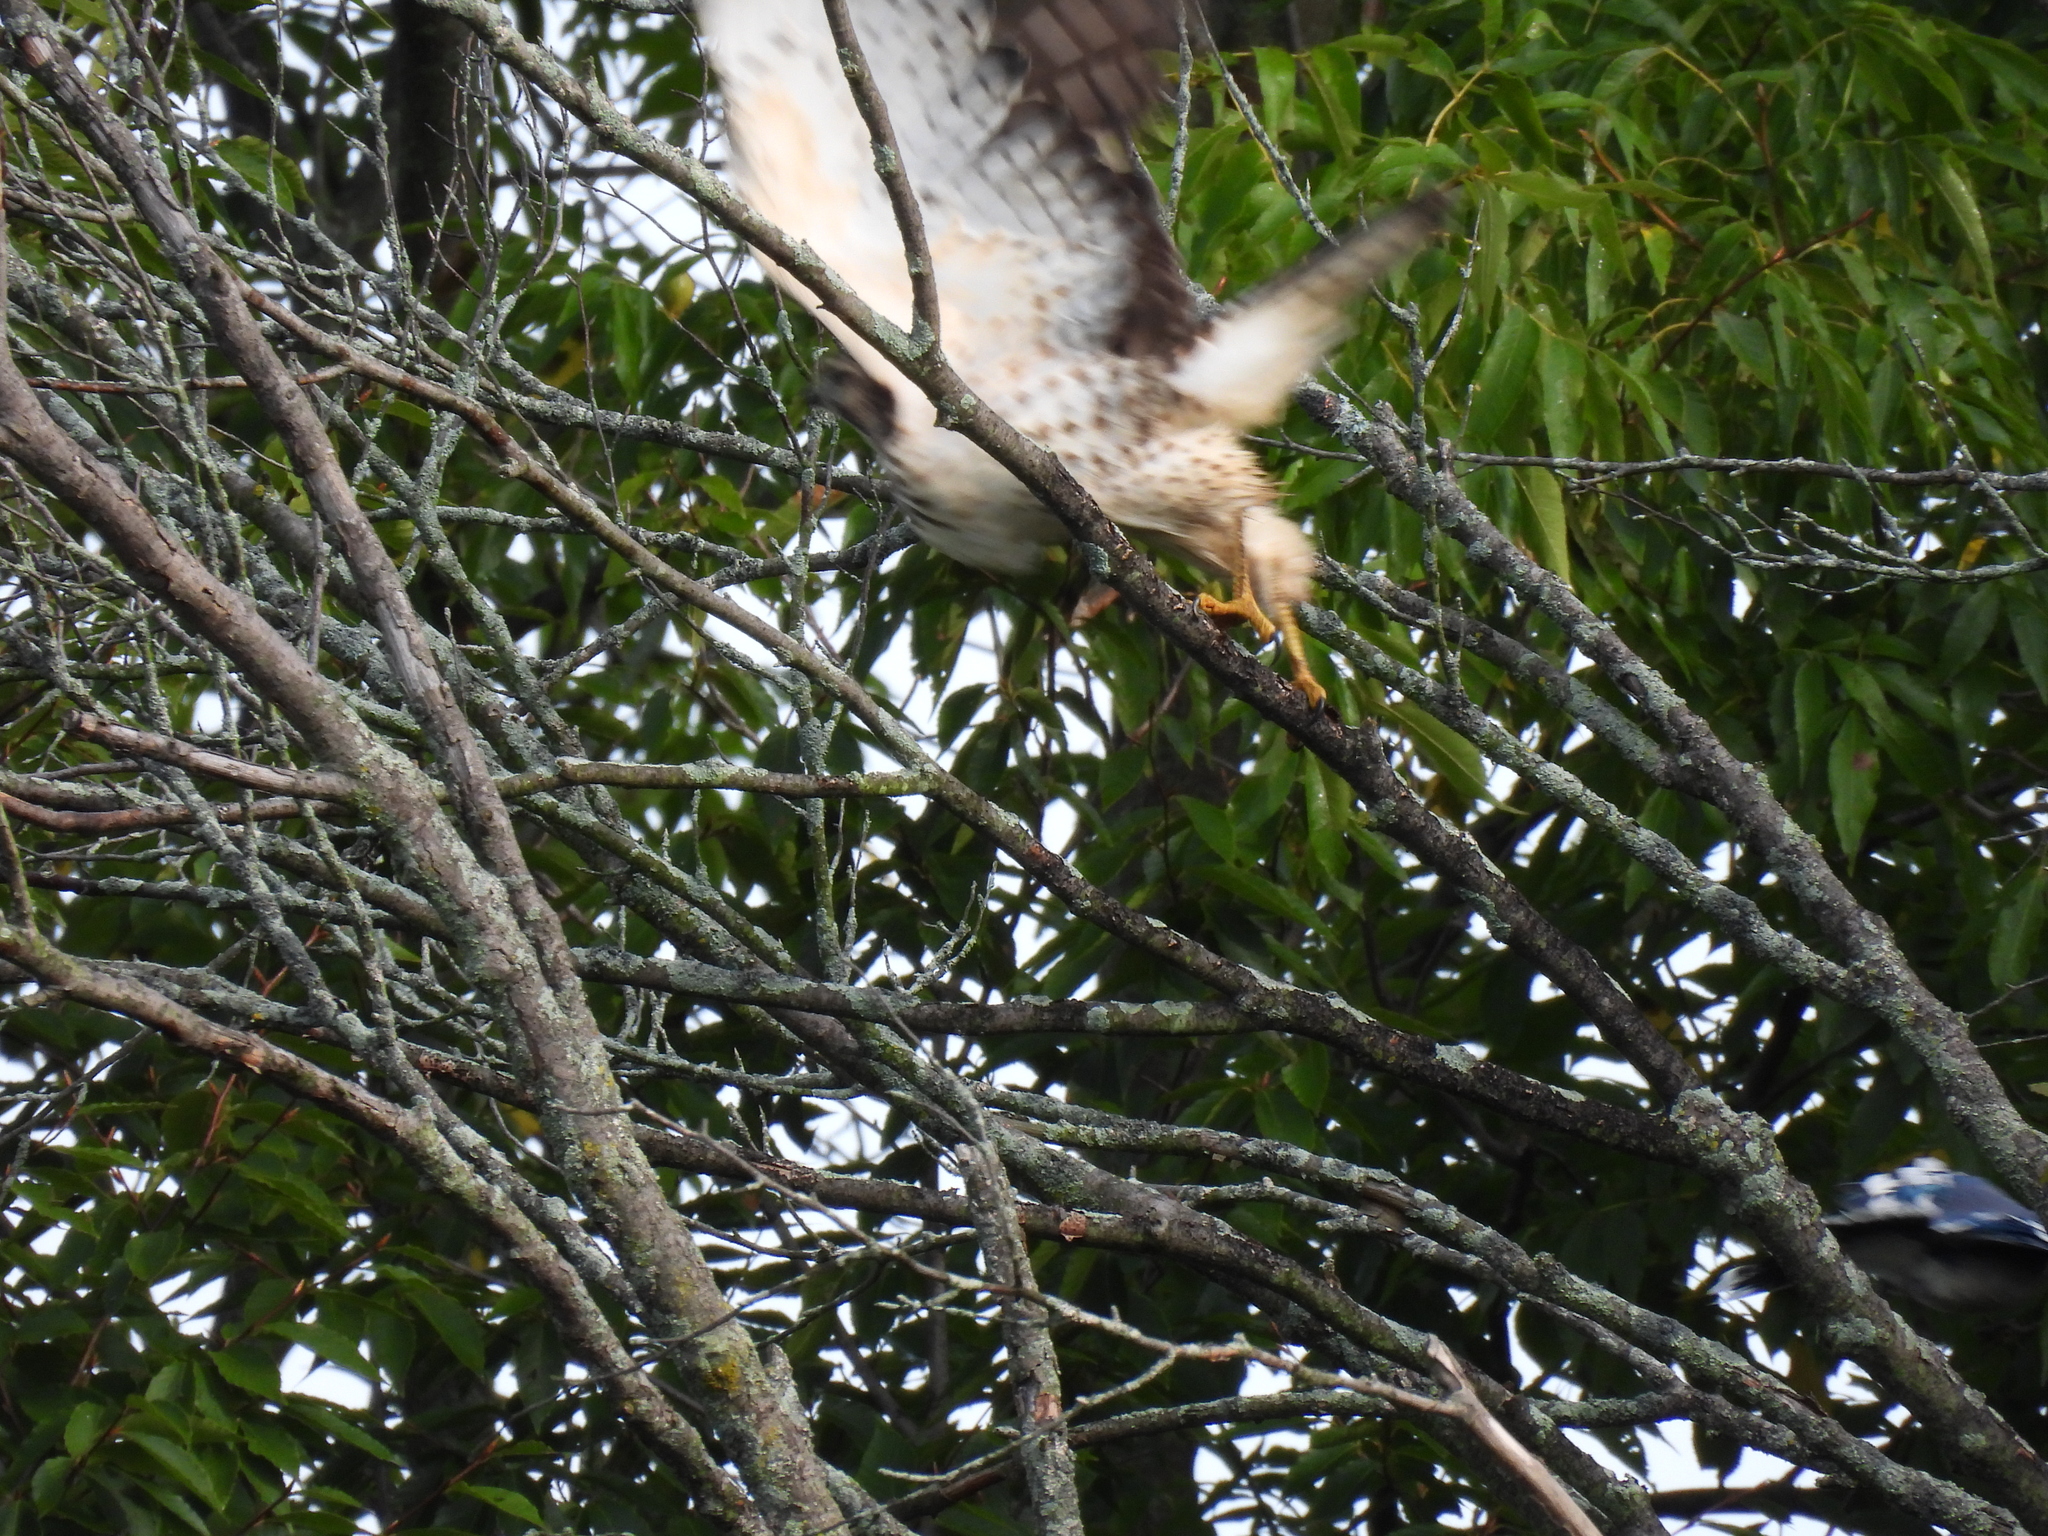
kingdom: Animalia
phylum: Chordata
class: Aves
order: Accipitriformes
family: Accipitridae
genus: Buteo
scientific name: Buteo platypterus
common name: Broad-winged hawk
